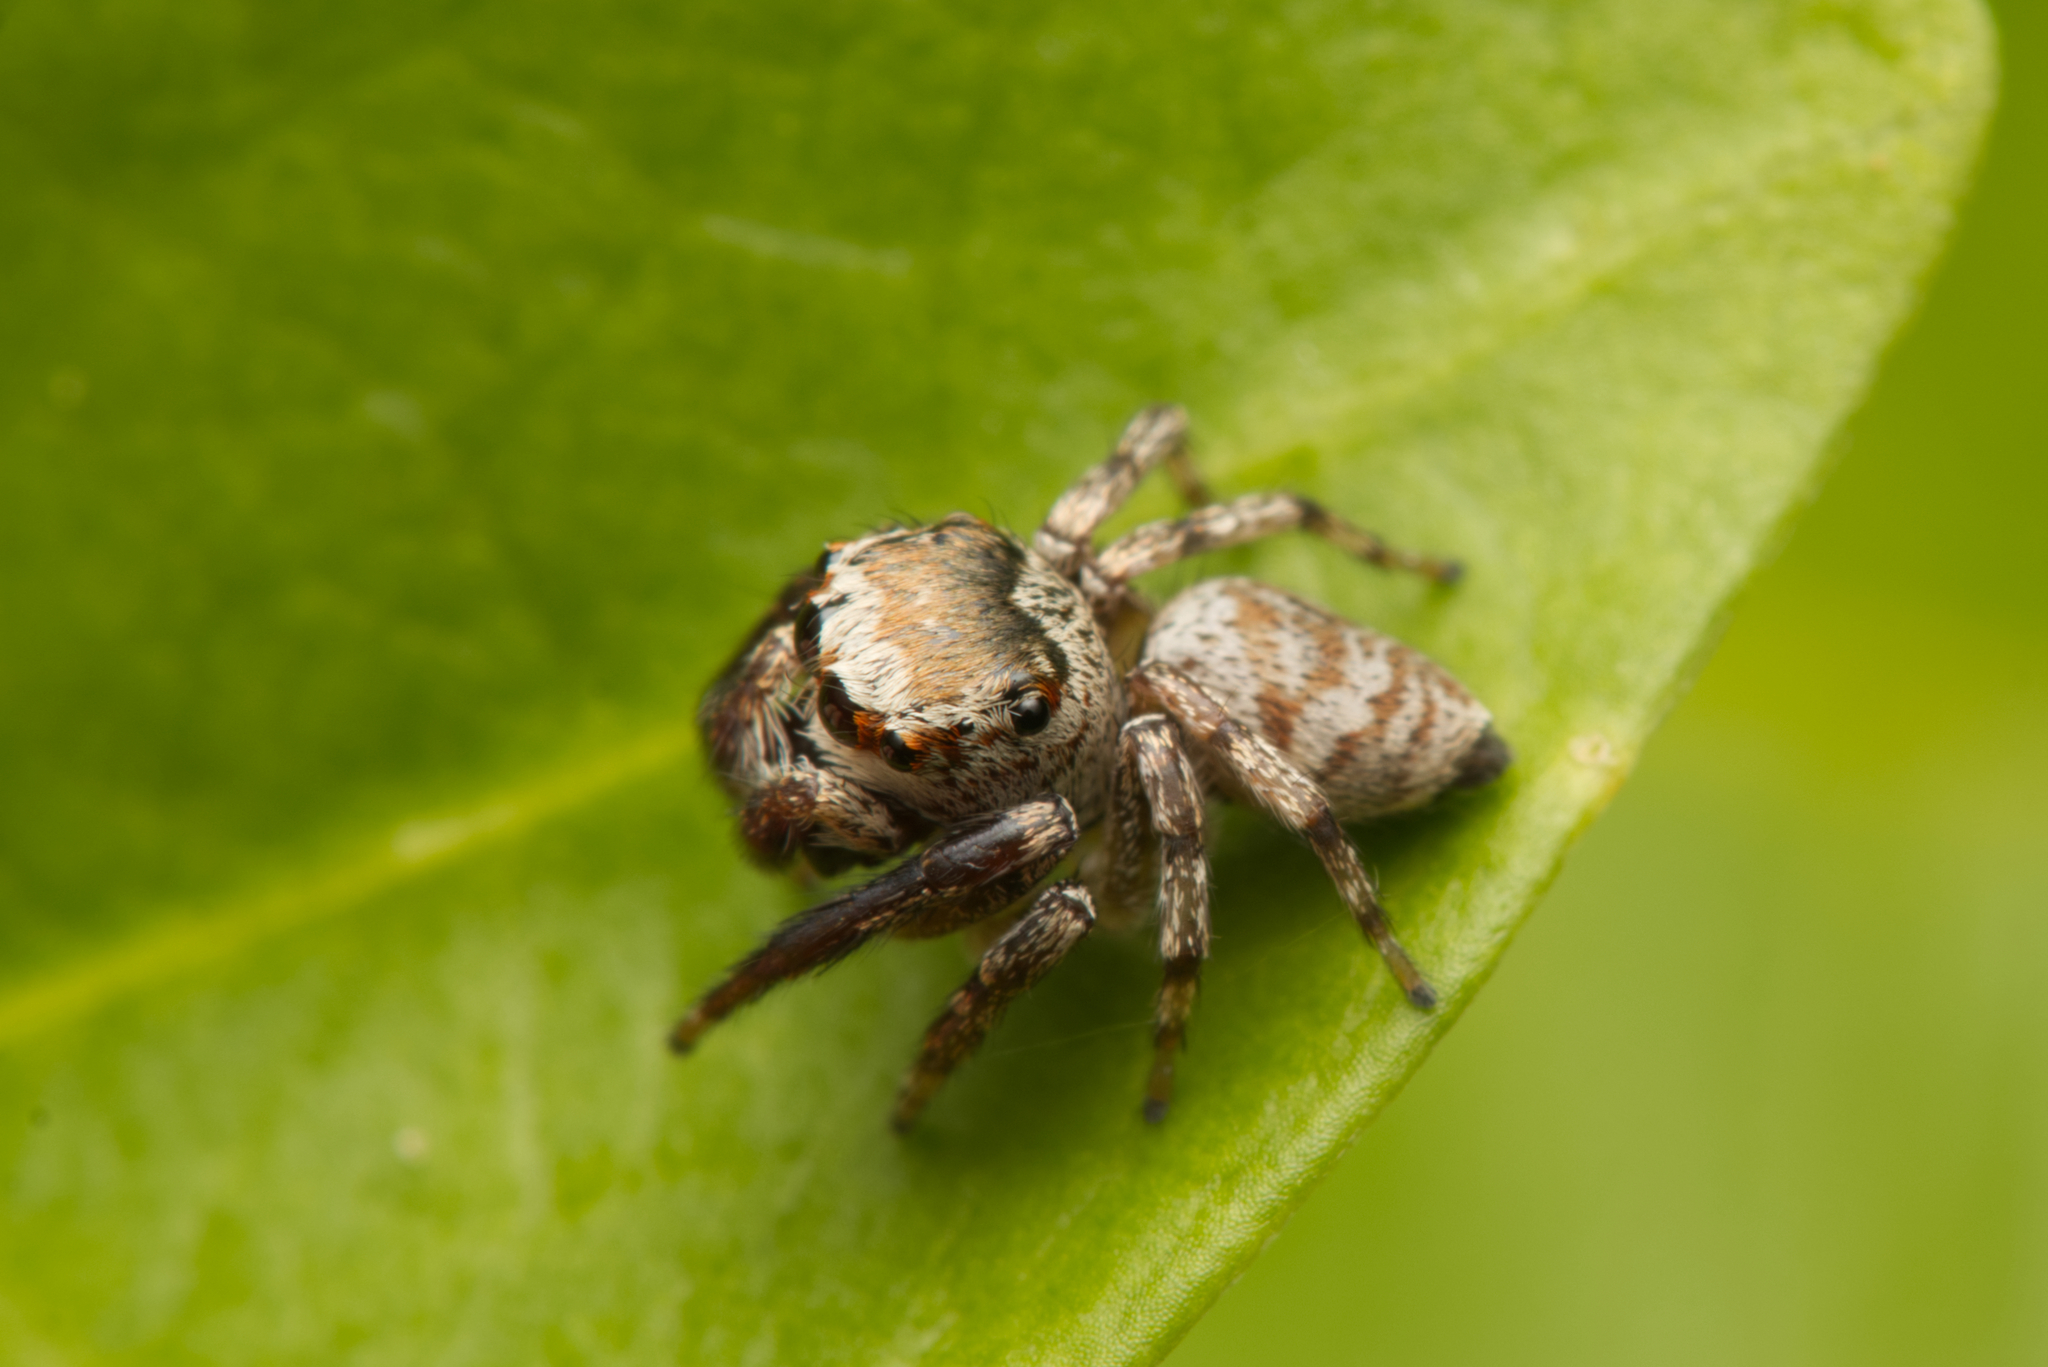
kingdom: Animalia
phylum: Arthropoda
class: Arachnida
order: Araneae
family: Salticidae
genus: Euryattus
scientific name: Euryattus bleekeri
